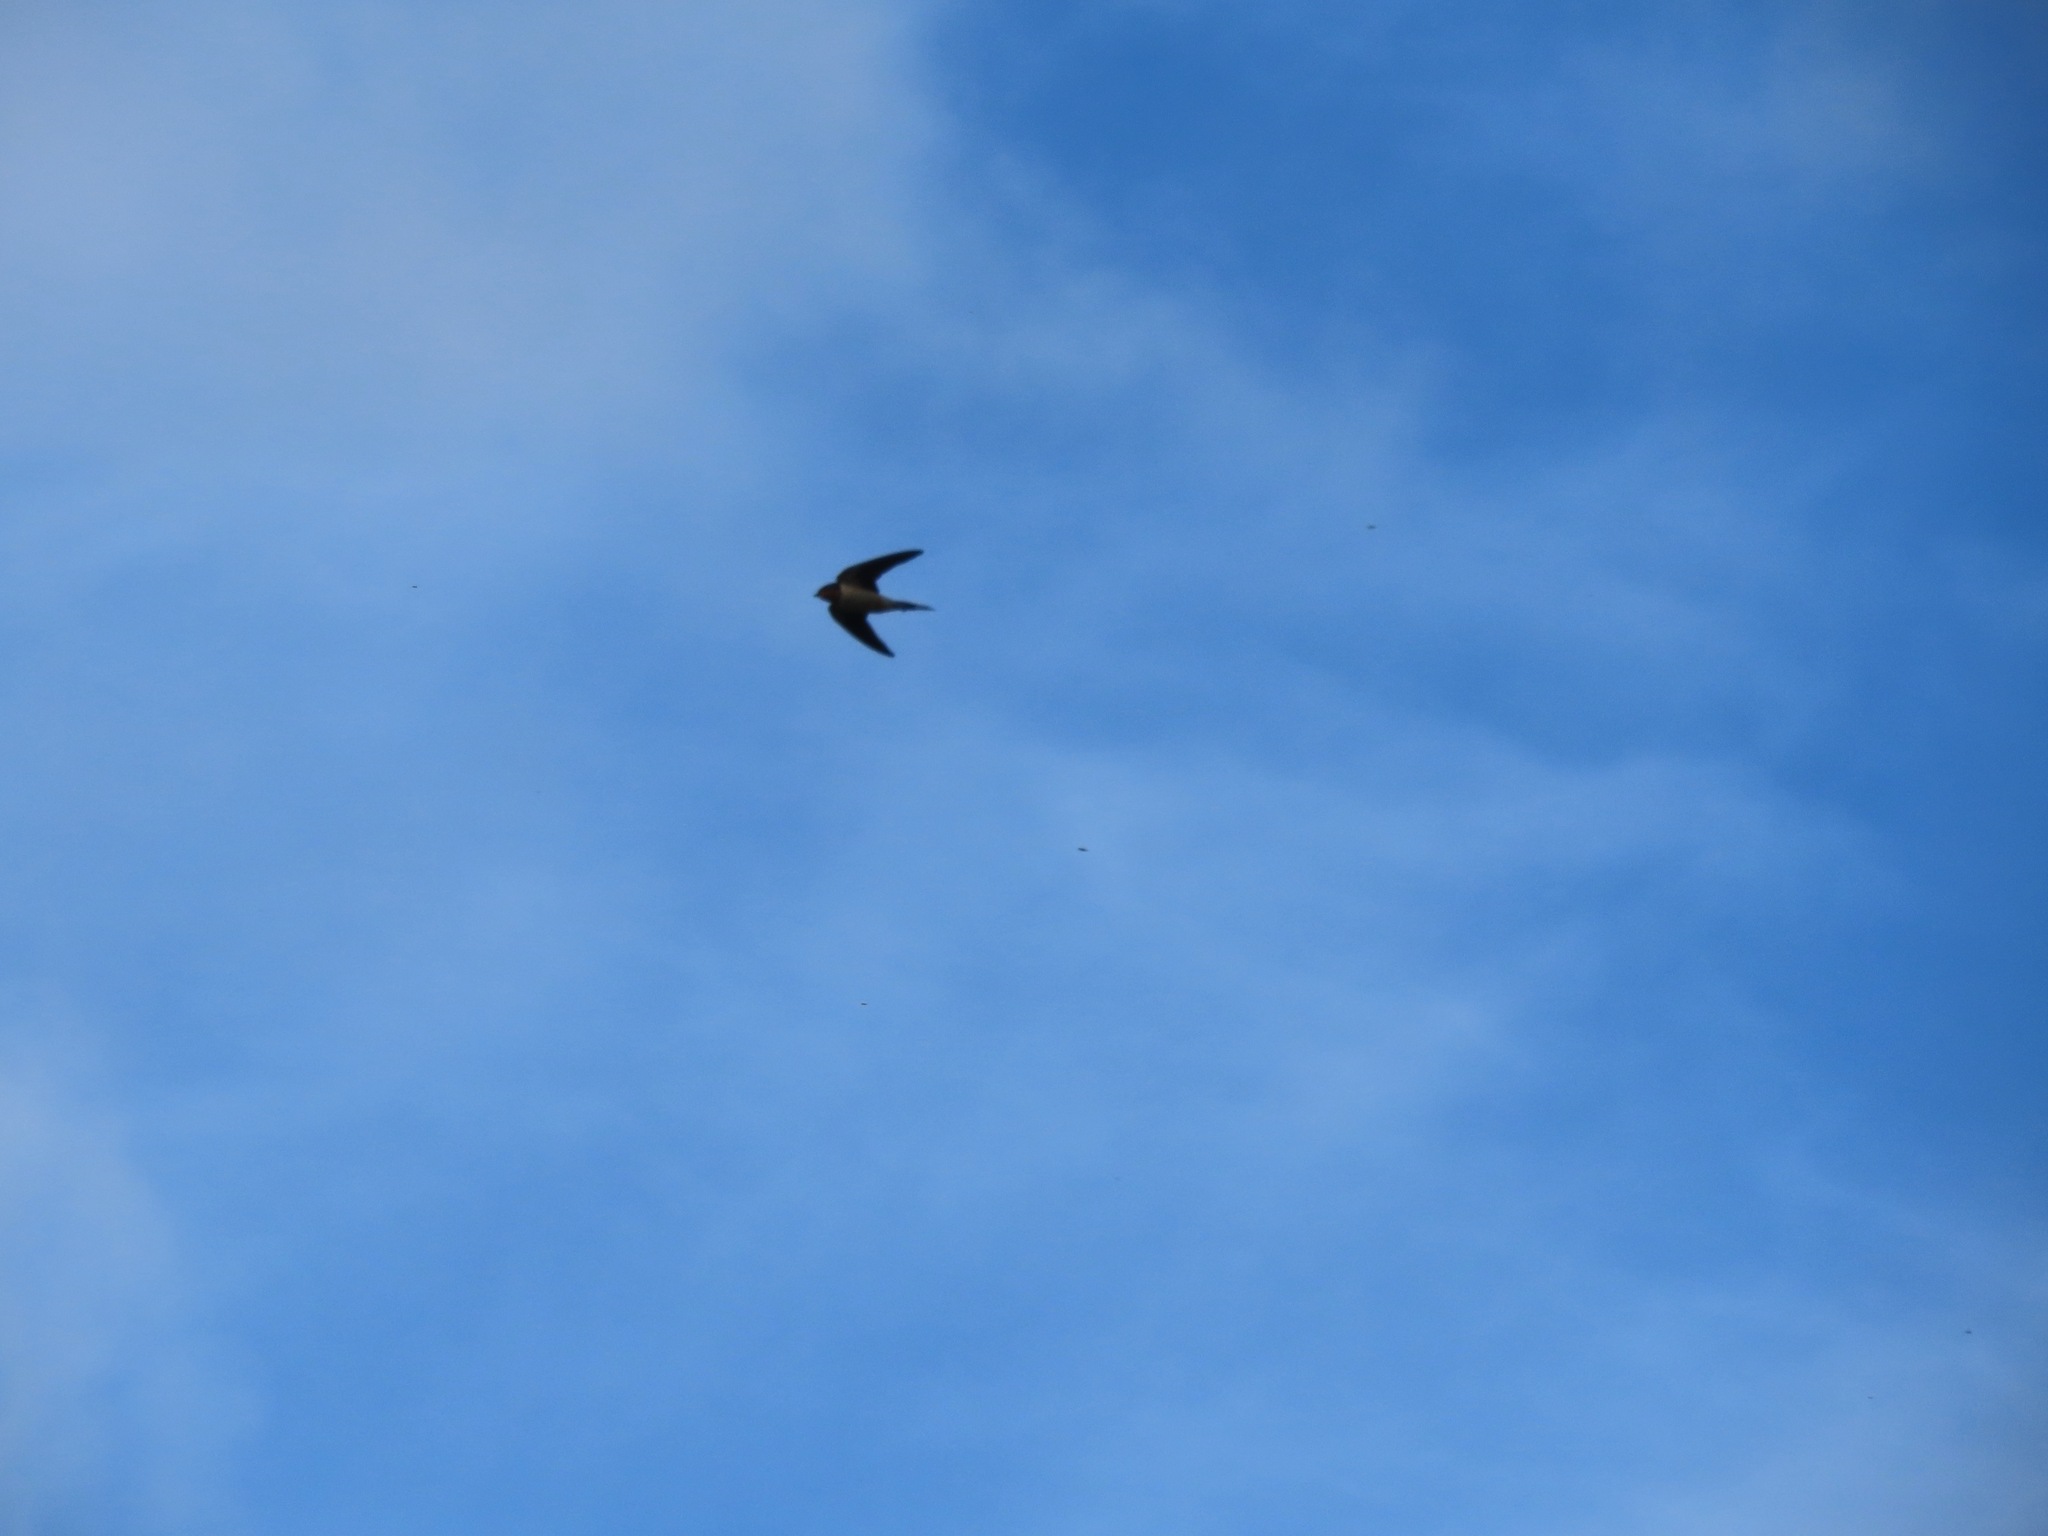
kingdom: Animalia
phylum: Chordata
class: Aves
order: Passeriformes
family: Hirundinidae
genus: Hirundo
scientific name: Hirundo rustica
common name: Barn swallow
